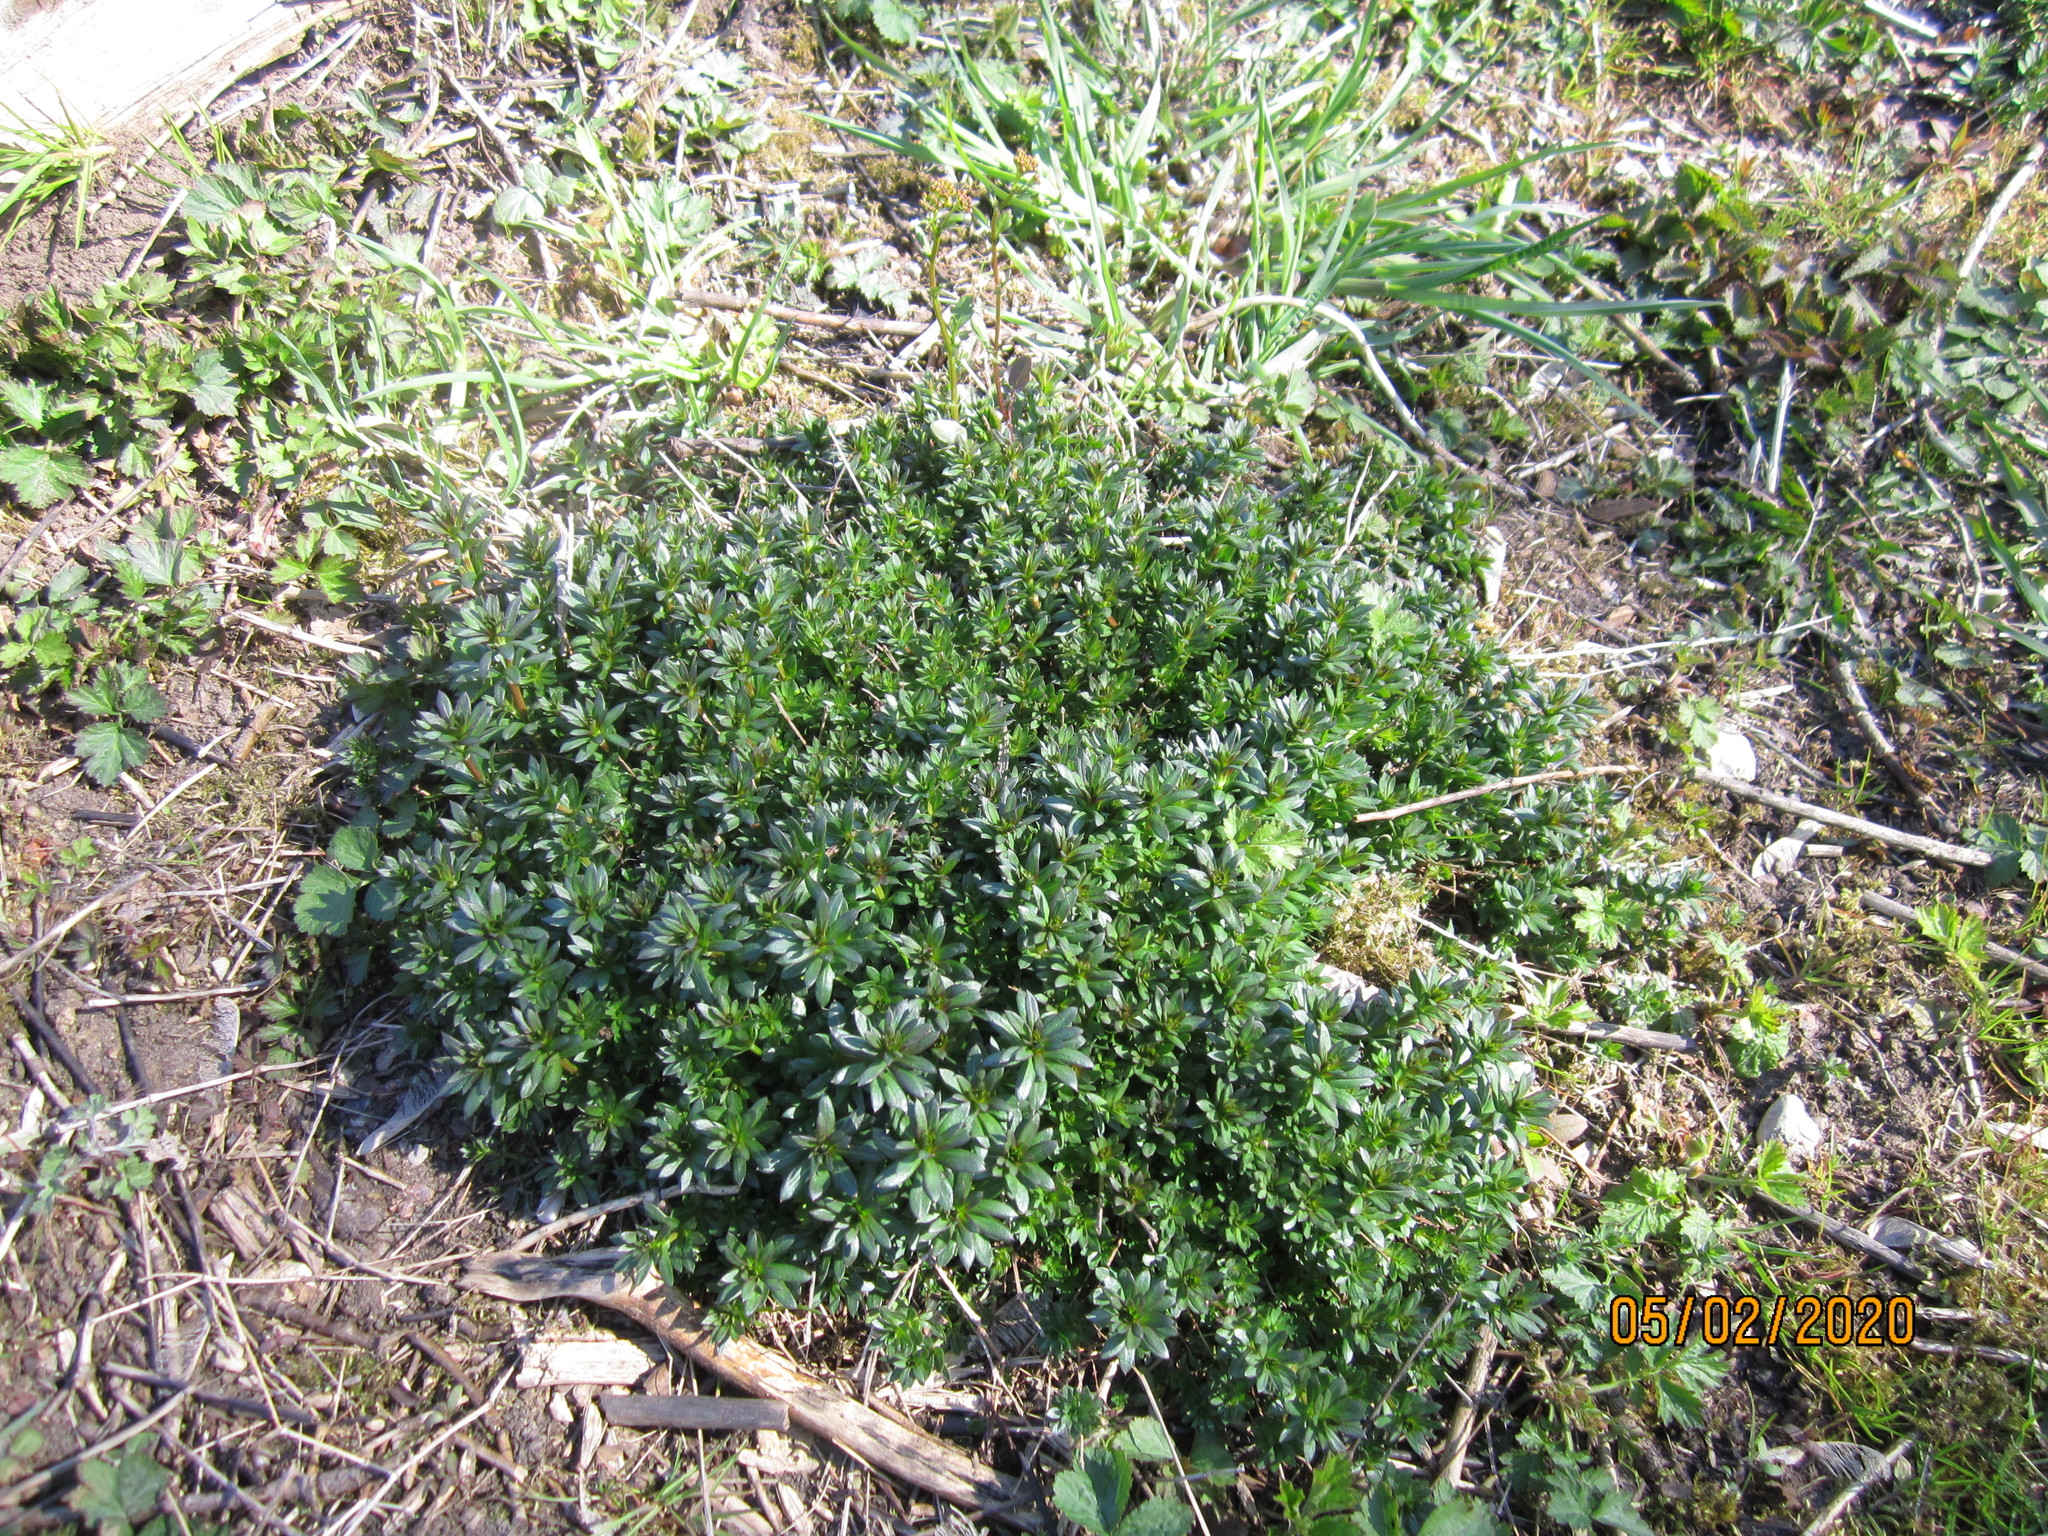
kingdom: Plantae
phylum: Tracheophyta
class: Magnoliopsida
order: Gentianales
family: Rubiaceae
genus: Galium
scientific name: Galium mollugo
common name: Hedge bedstraw
